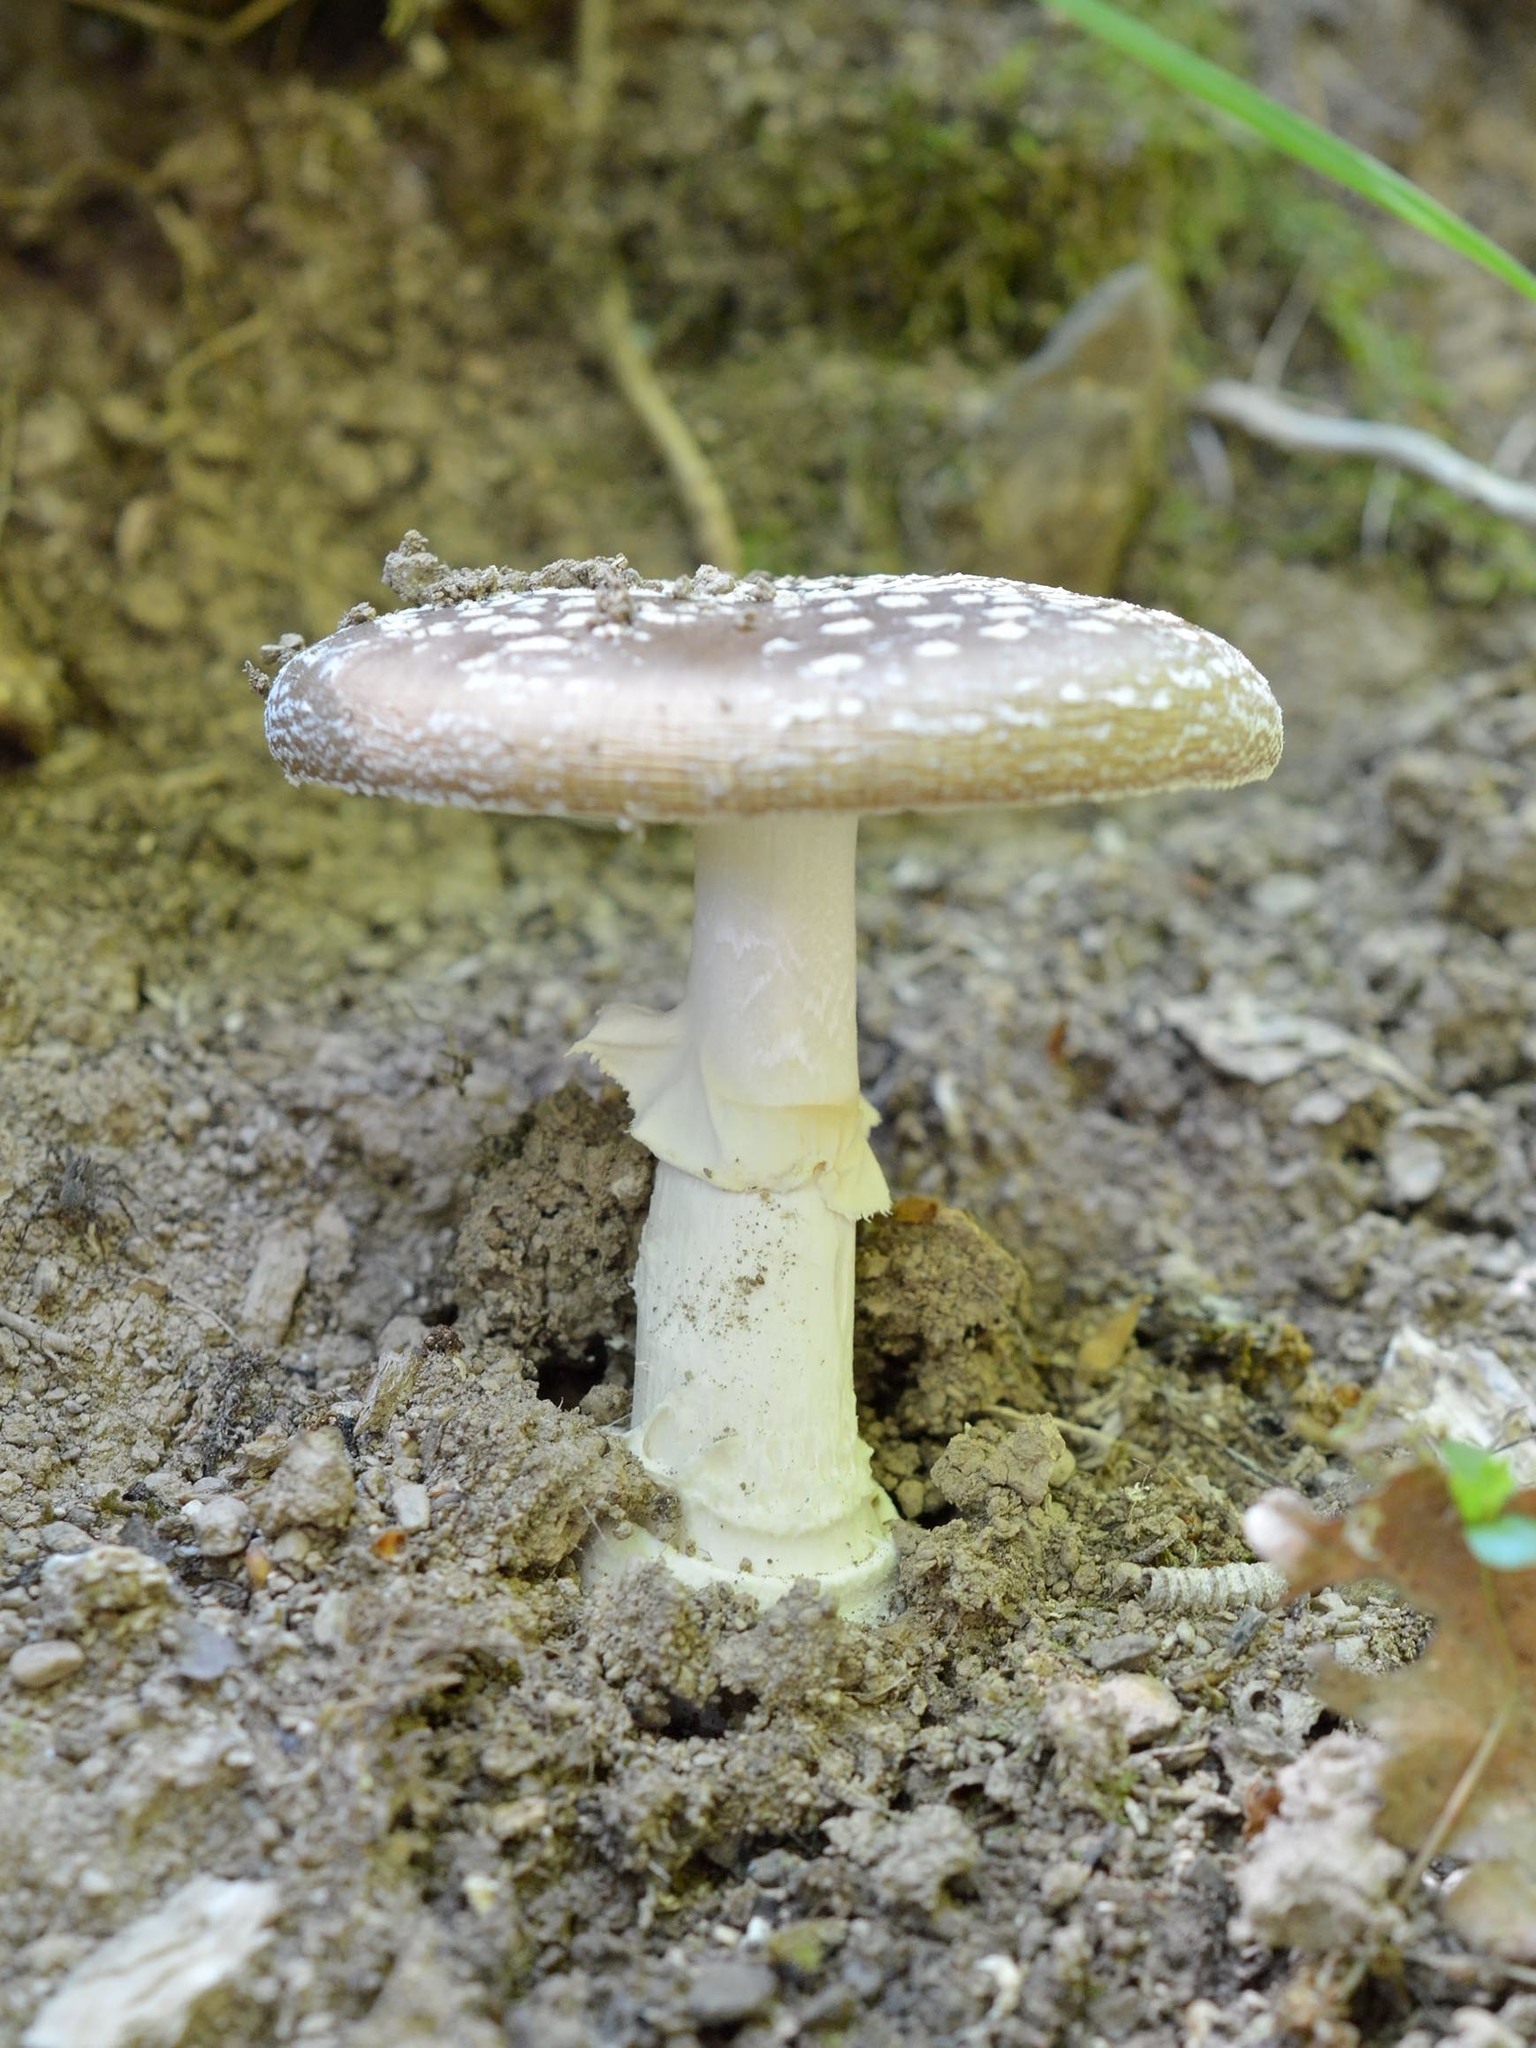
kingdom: Fungi
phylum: Basidiomycota
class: Agaricomycetes
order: Agaricales
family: Amanitaceae
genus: Amanita
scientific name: Amanita pantherina
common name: Panthercap
